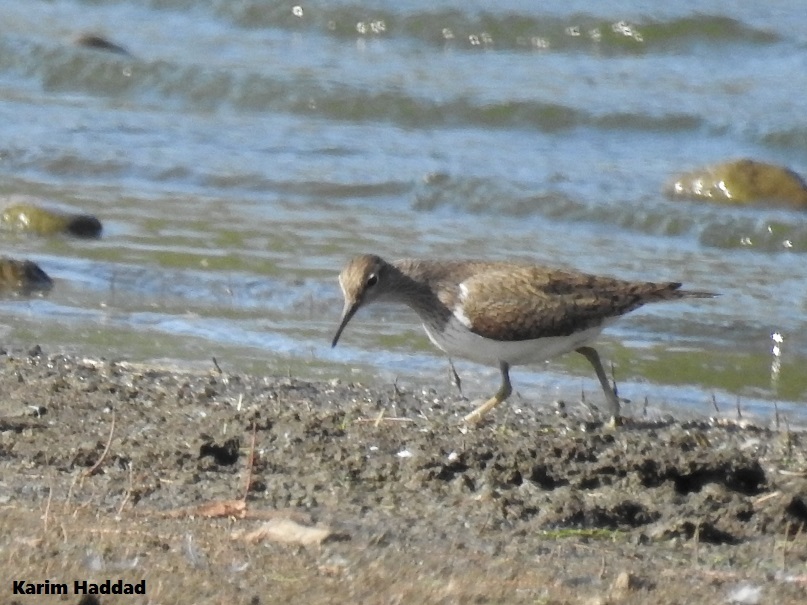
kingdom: Animalia
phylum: Chordata
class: Aves
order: Charadriiformes
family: Scolopacidae
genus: Actitis
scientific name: Actitis hypoleucos
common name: Common sandpiper
